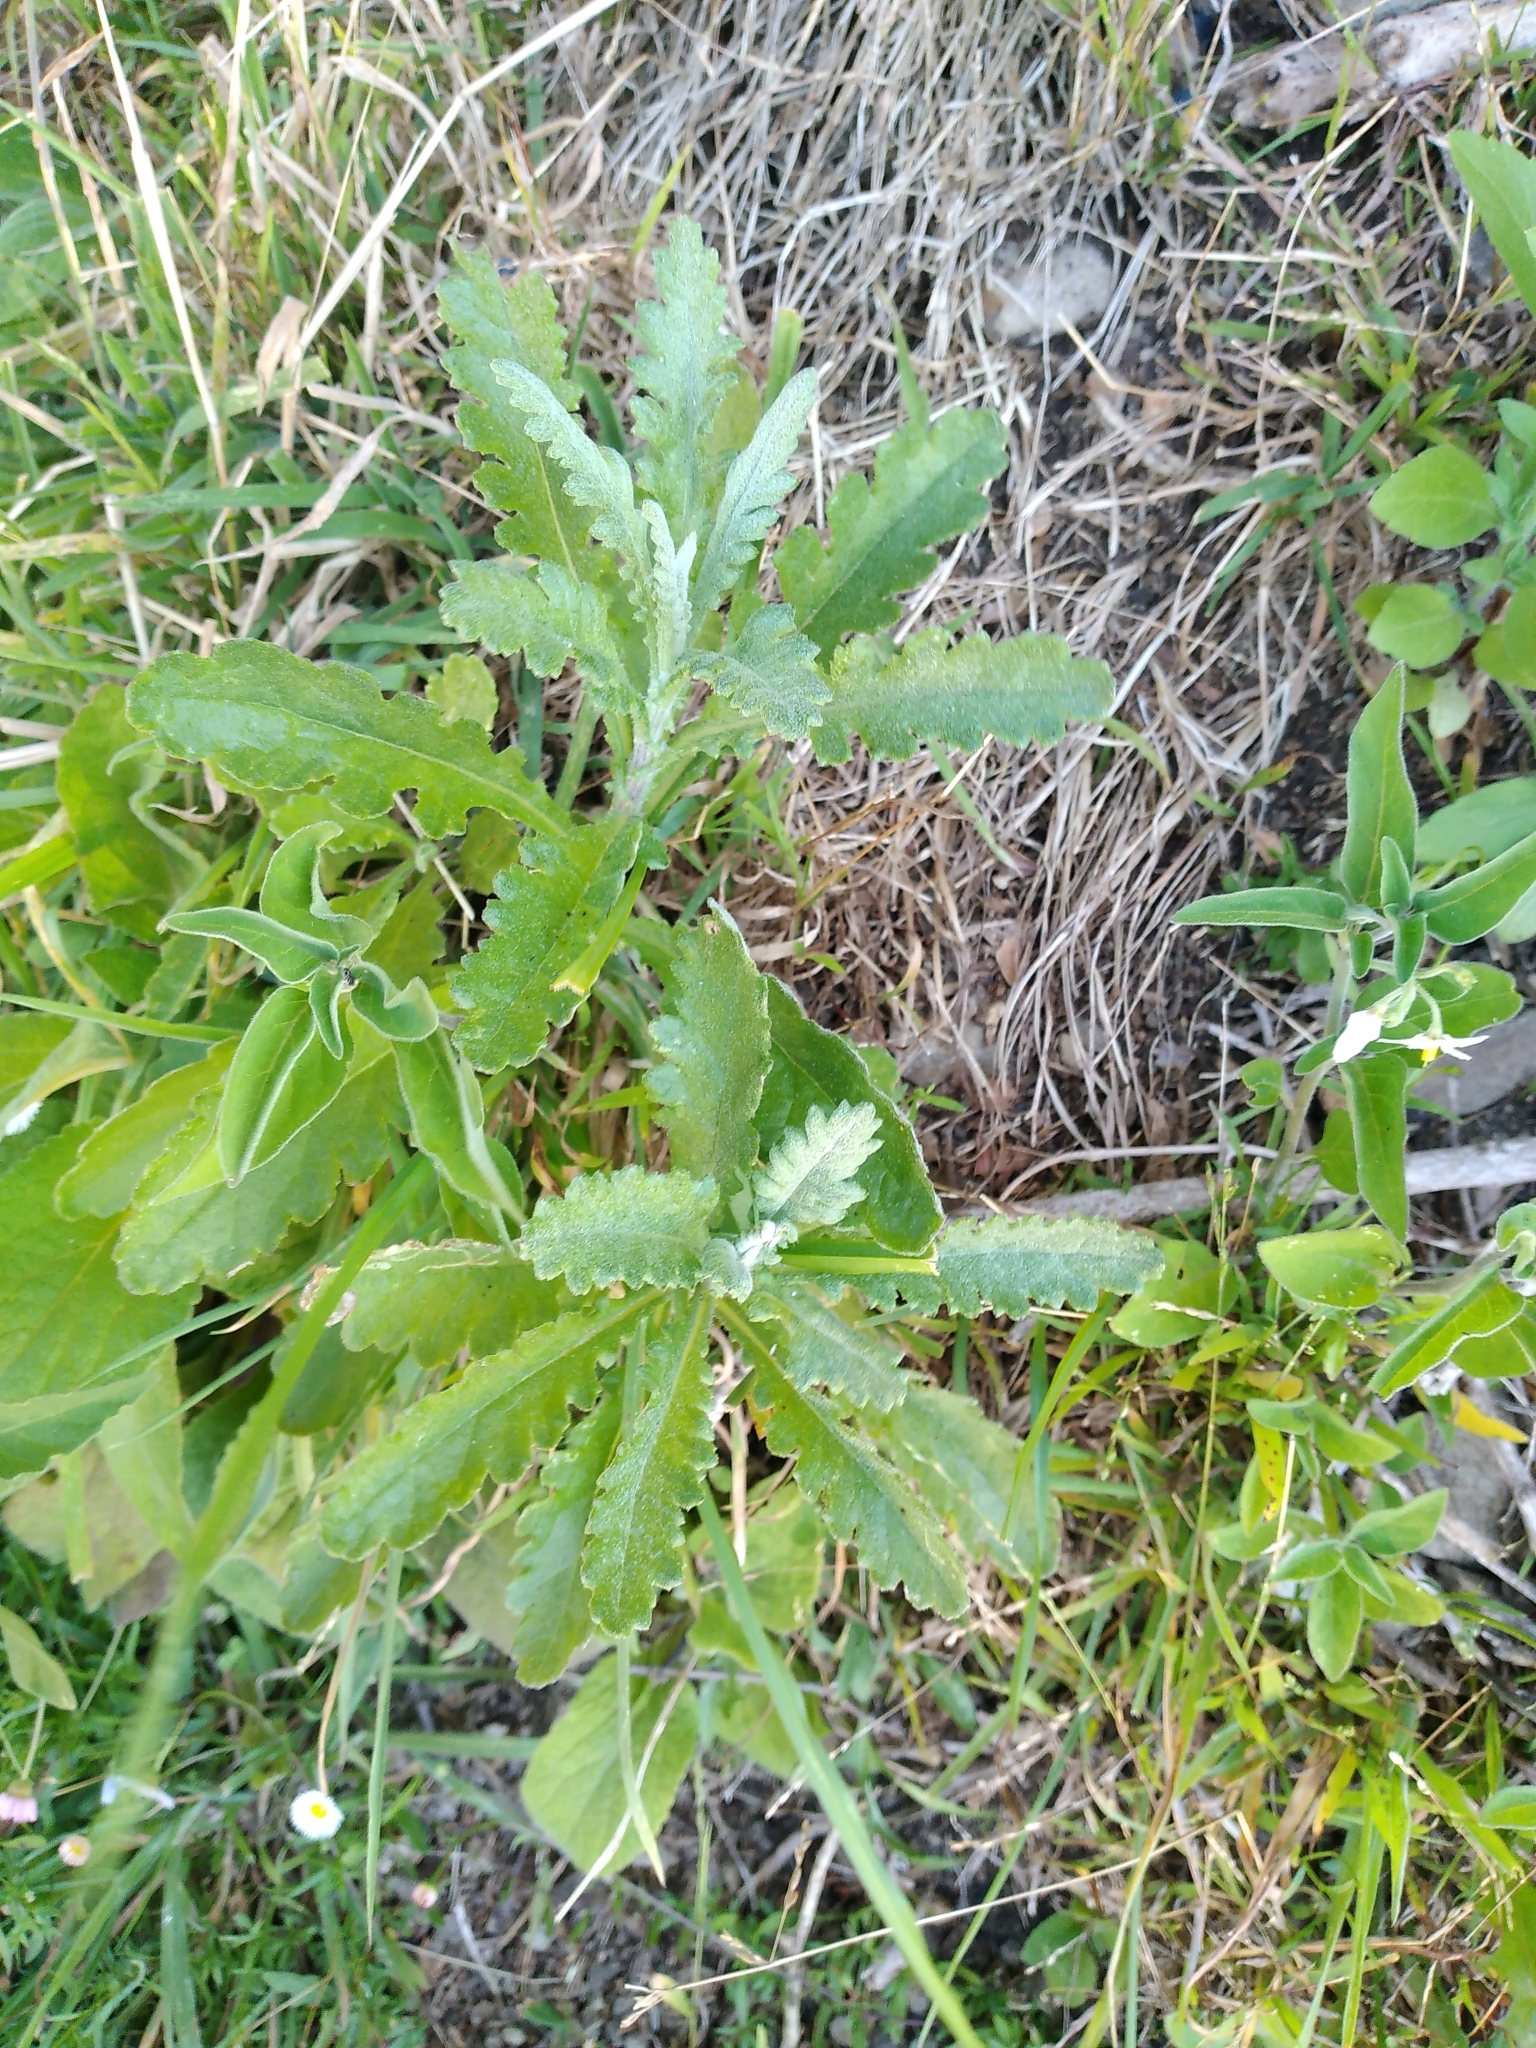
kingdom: Plantae
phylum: Tracheophyta
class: Magnoliopsida
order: Asterales
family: Asteraceae
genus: Senecio
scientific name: Senecio glomeratus
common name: Cutleaf burnweed
